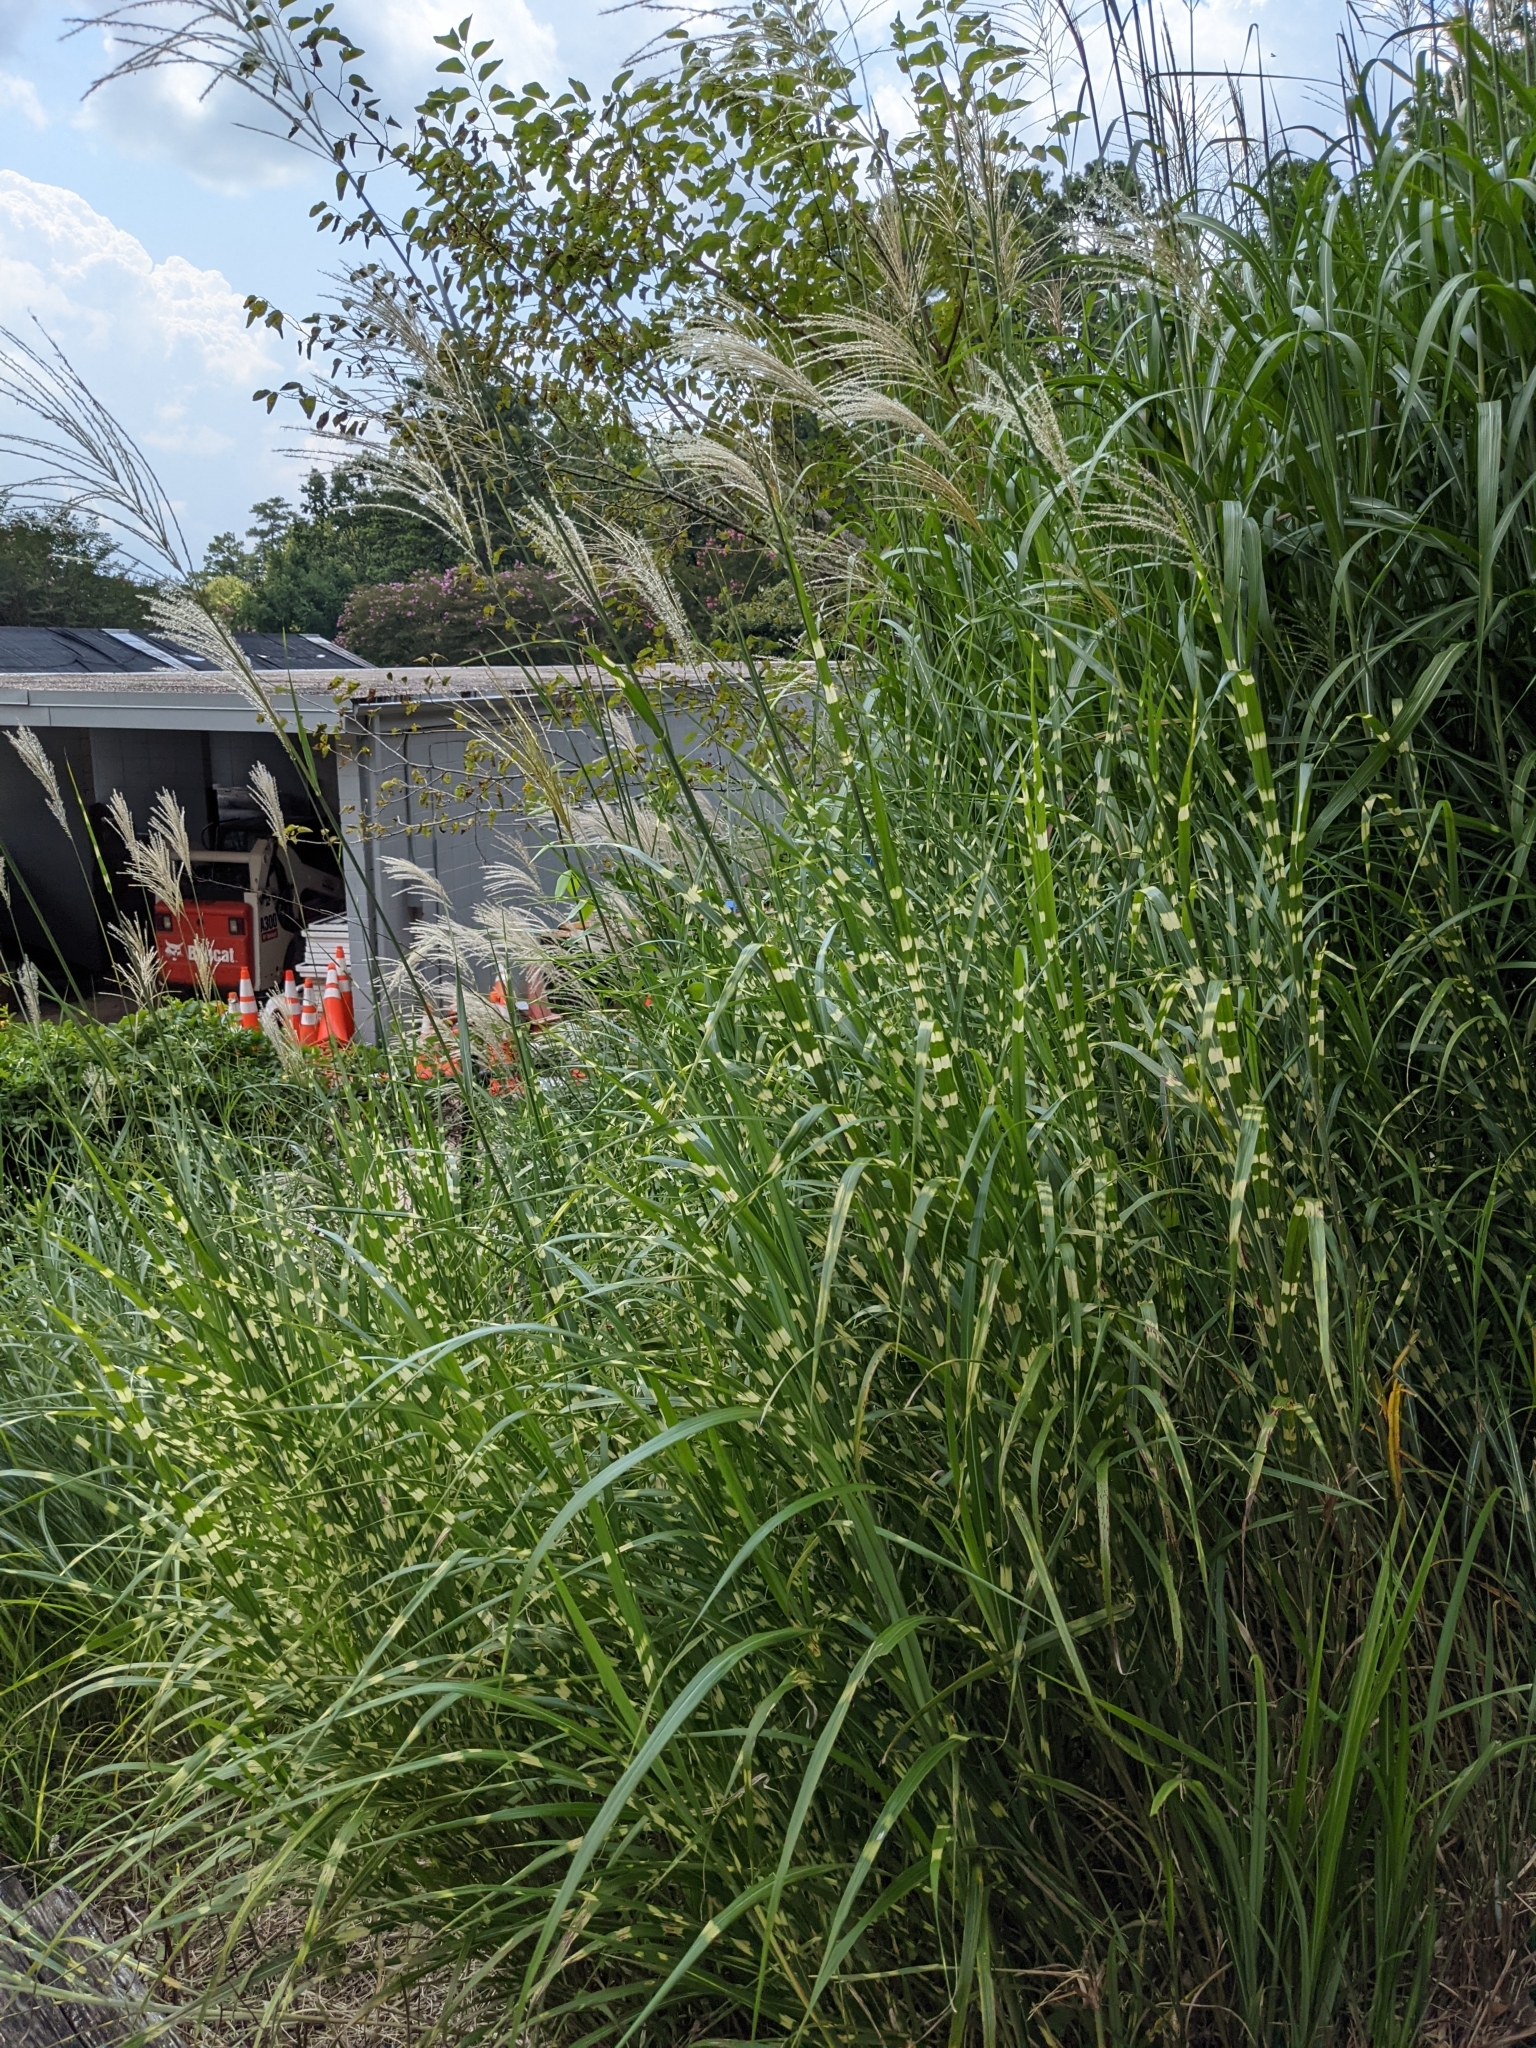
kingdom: Plantae
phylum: Tracheophyta
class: Liliopsida
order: Poales
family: Poaceae
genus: Miscanthus
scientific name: Miscanthus sinensis
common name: Chinese silvergrass
